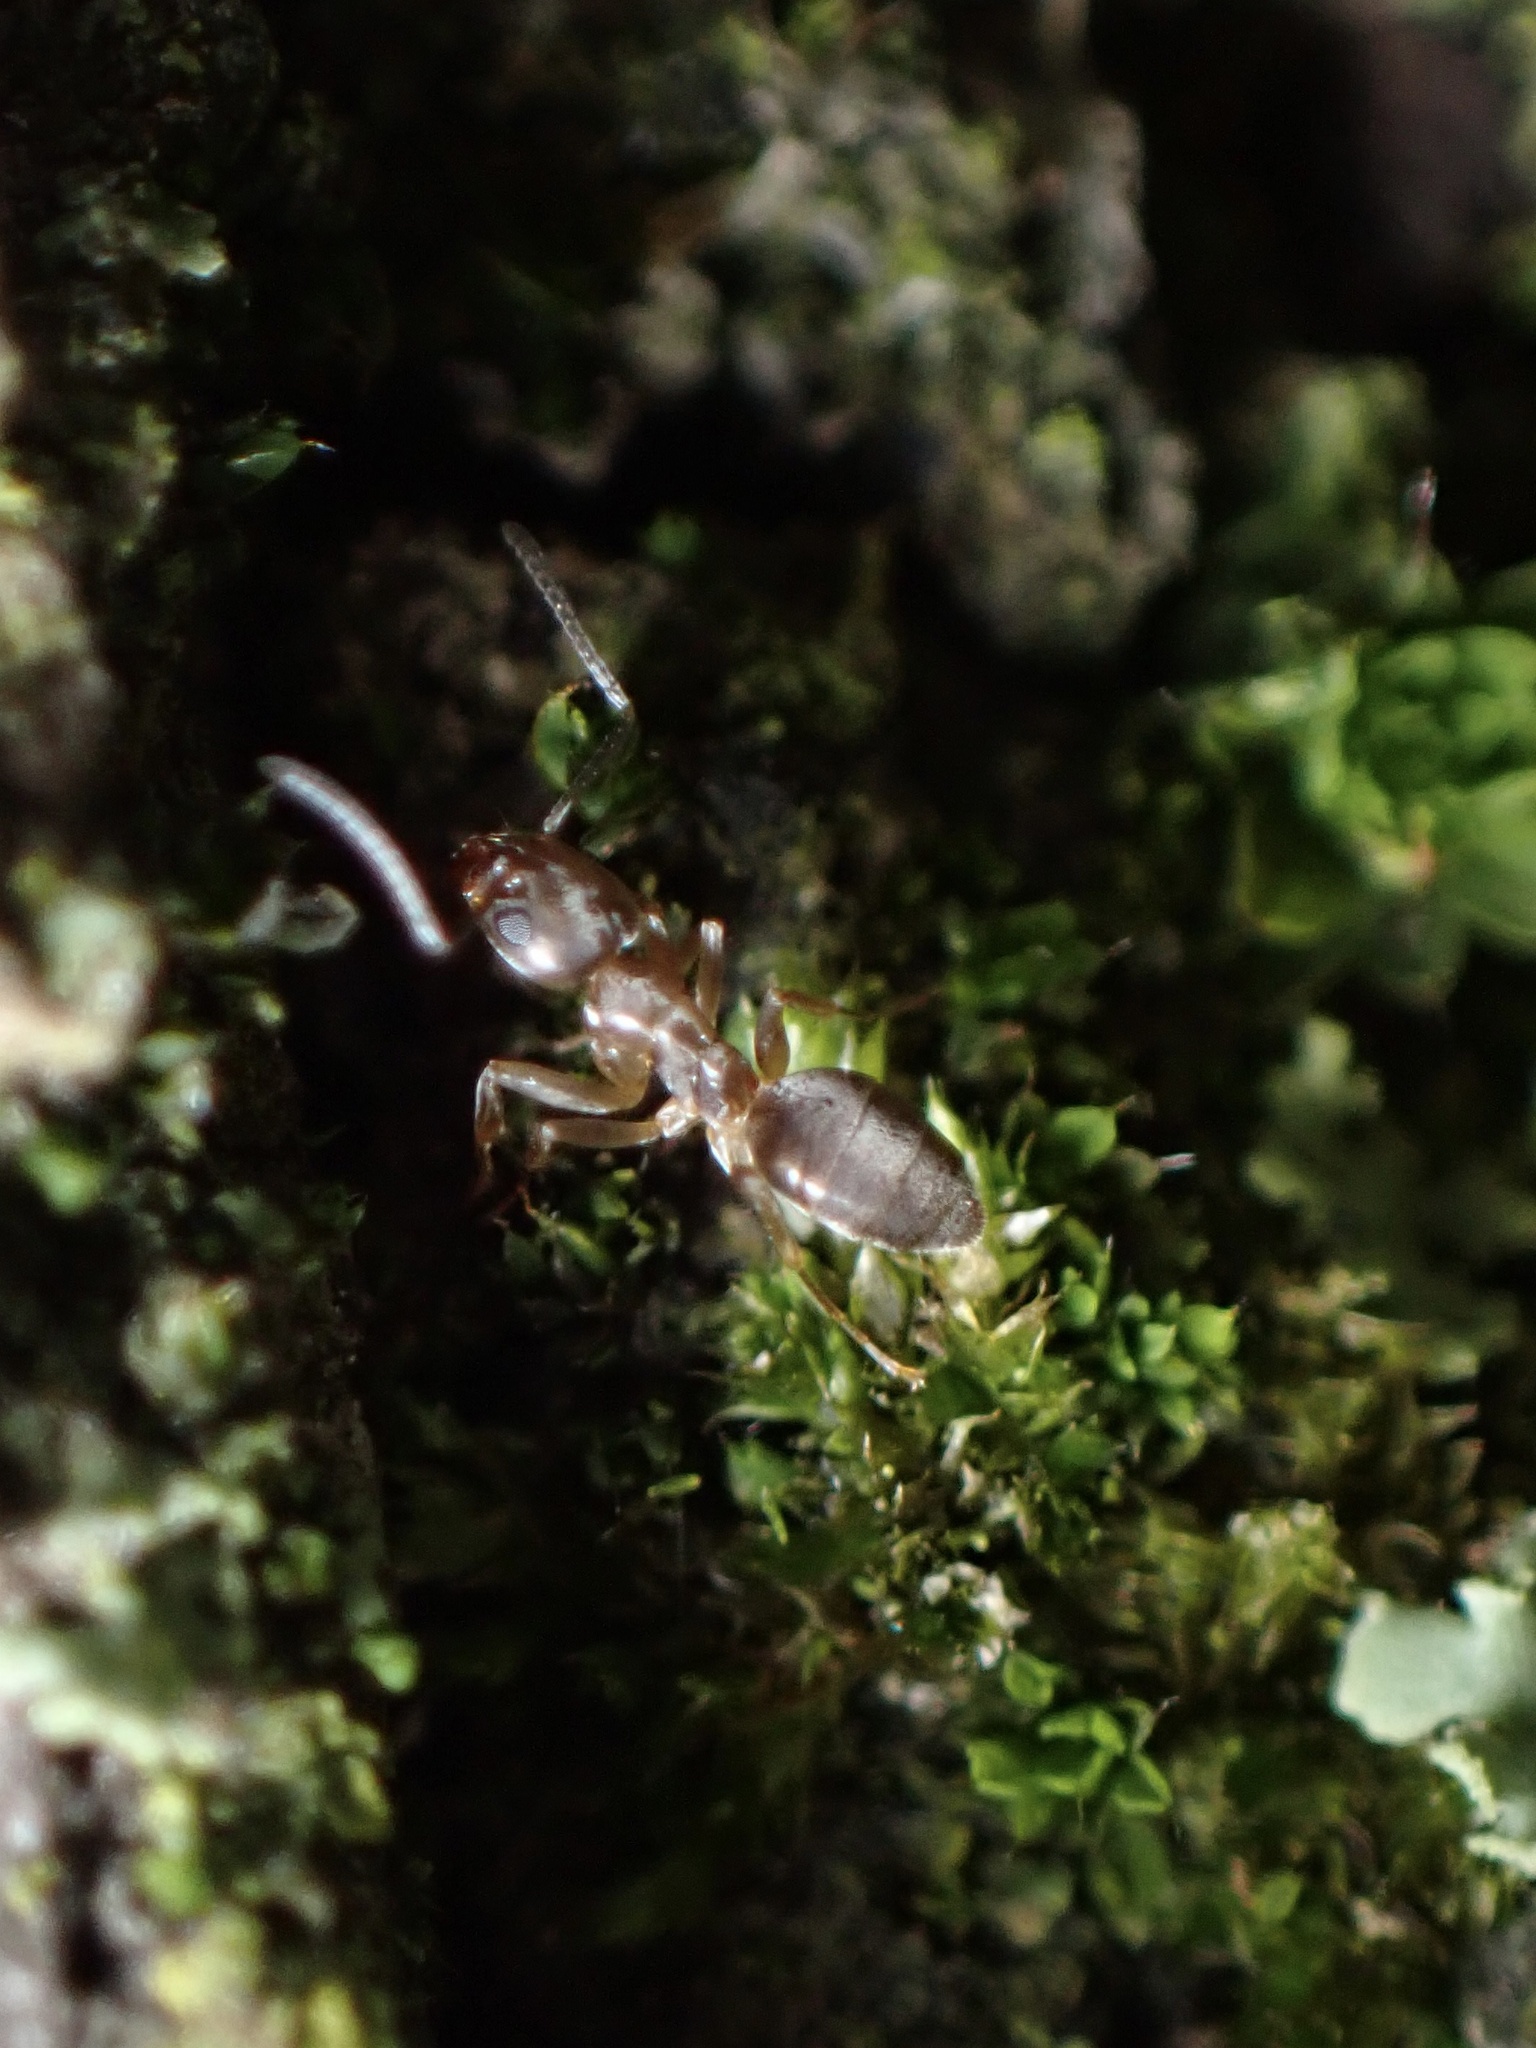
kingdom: Animalia
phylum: Arthropoda
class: Insecta
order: Hymenoptera
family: Formicidae
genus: Tapinoma
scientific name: Tapinoma sessile
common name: Odorous house ant
